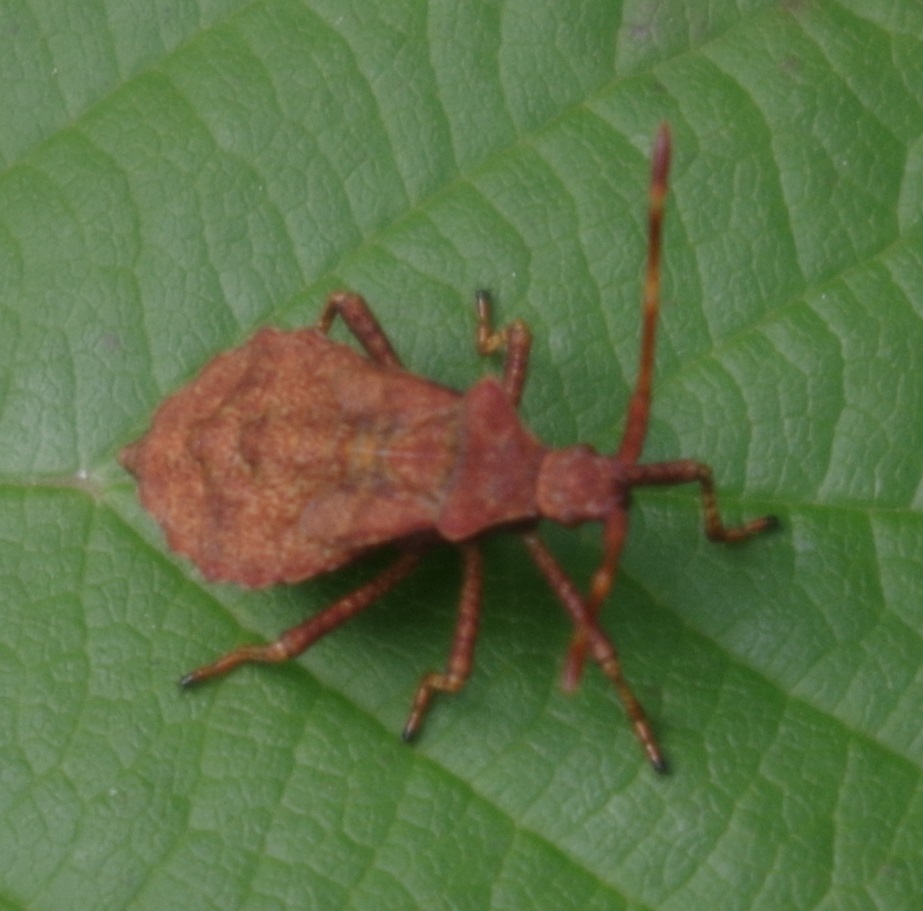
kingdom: Animalia
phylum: Arthropoda
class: Insecta
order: Hemiptera
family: Coreidae
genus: Coreus
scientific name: Coreus marginatus
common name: Dock bug
